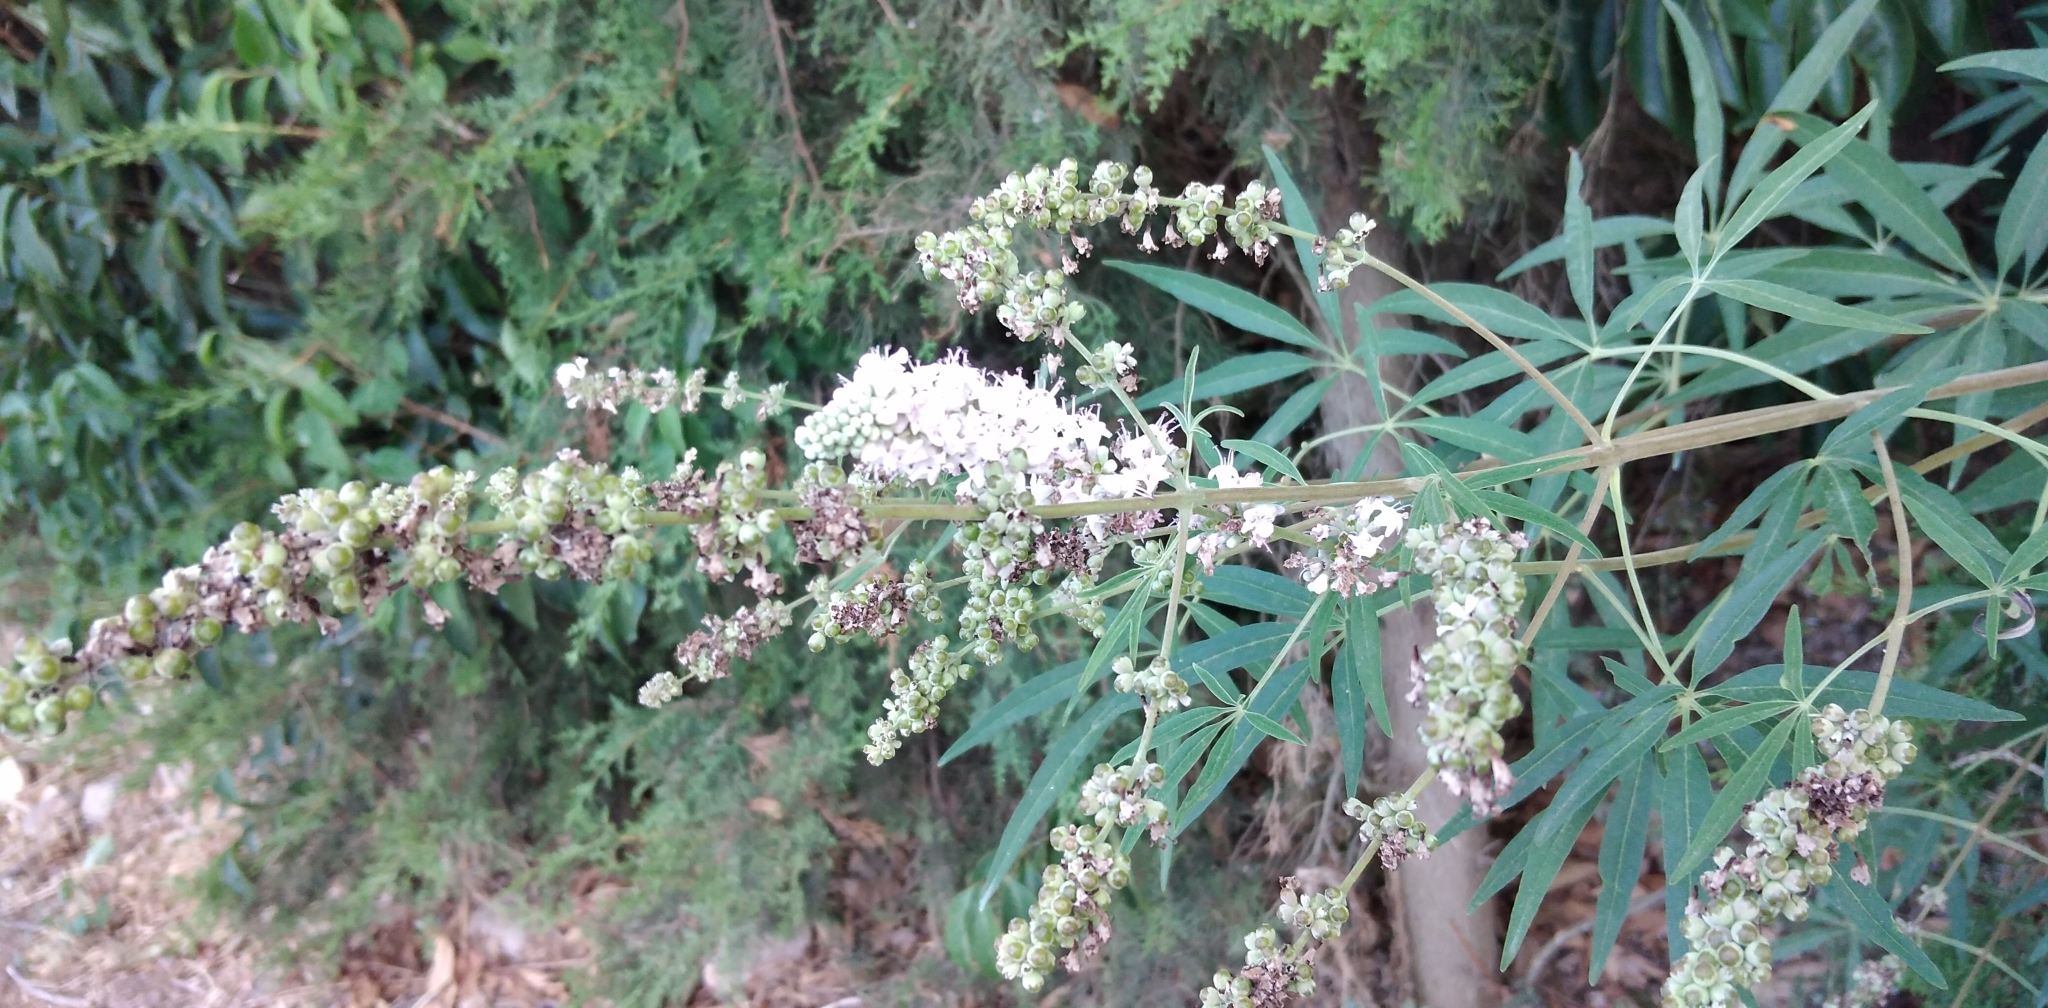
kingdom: Plantae
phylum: Tracheophyta
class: Magnoliopsida
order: Lamiales
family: Lamiaceae
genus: Vitex
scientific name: Vitex agnus-castus
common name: Chasteberry
